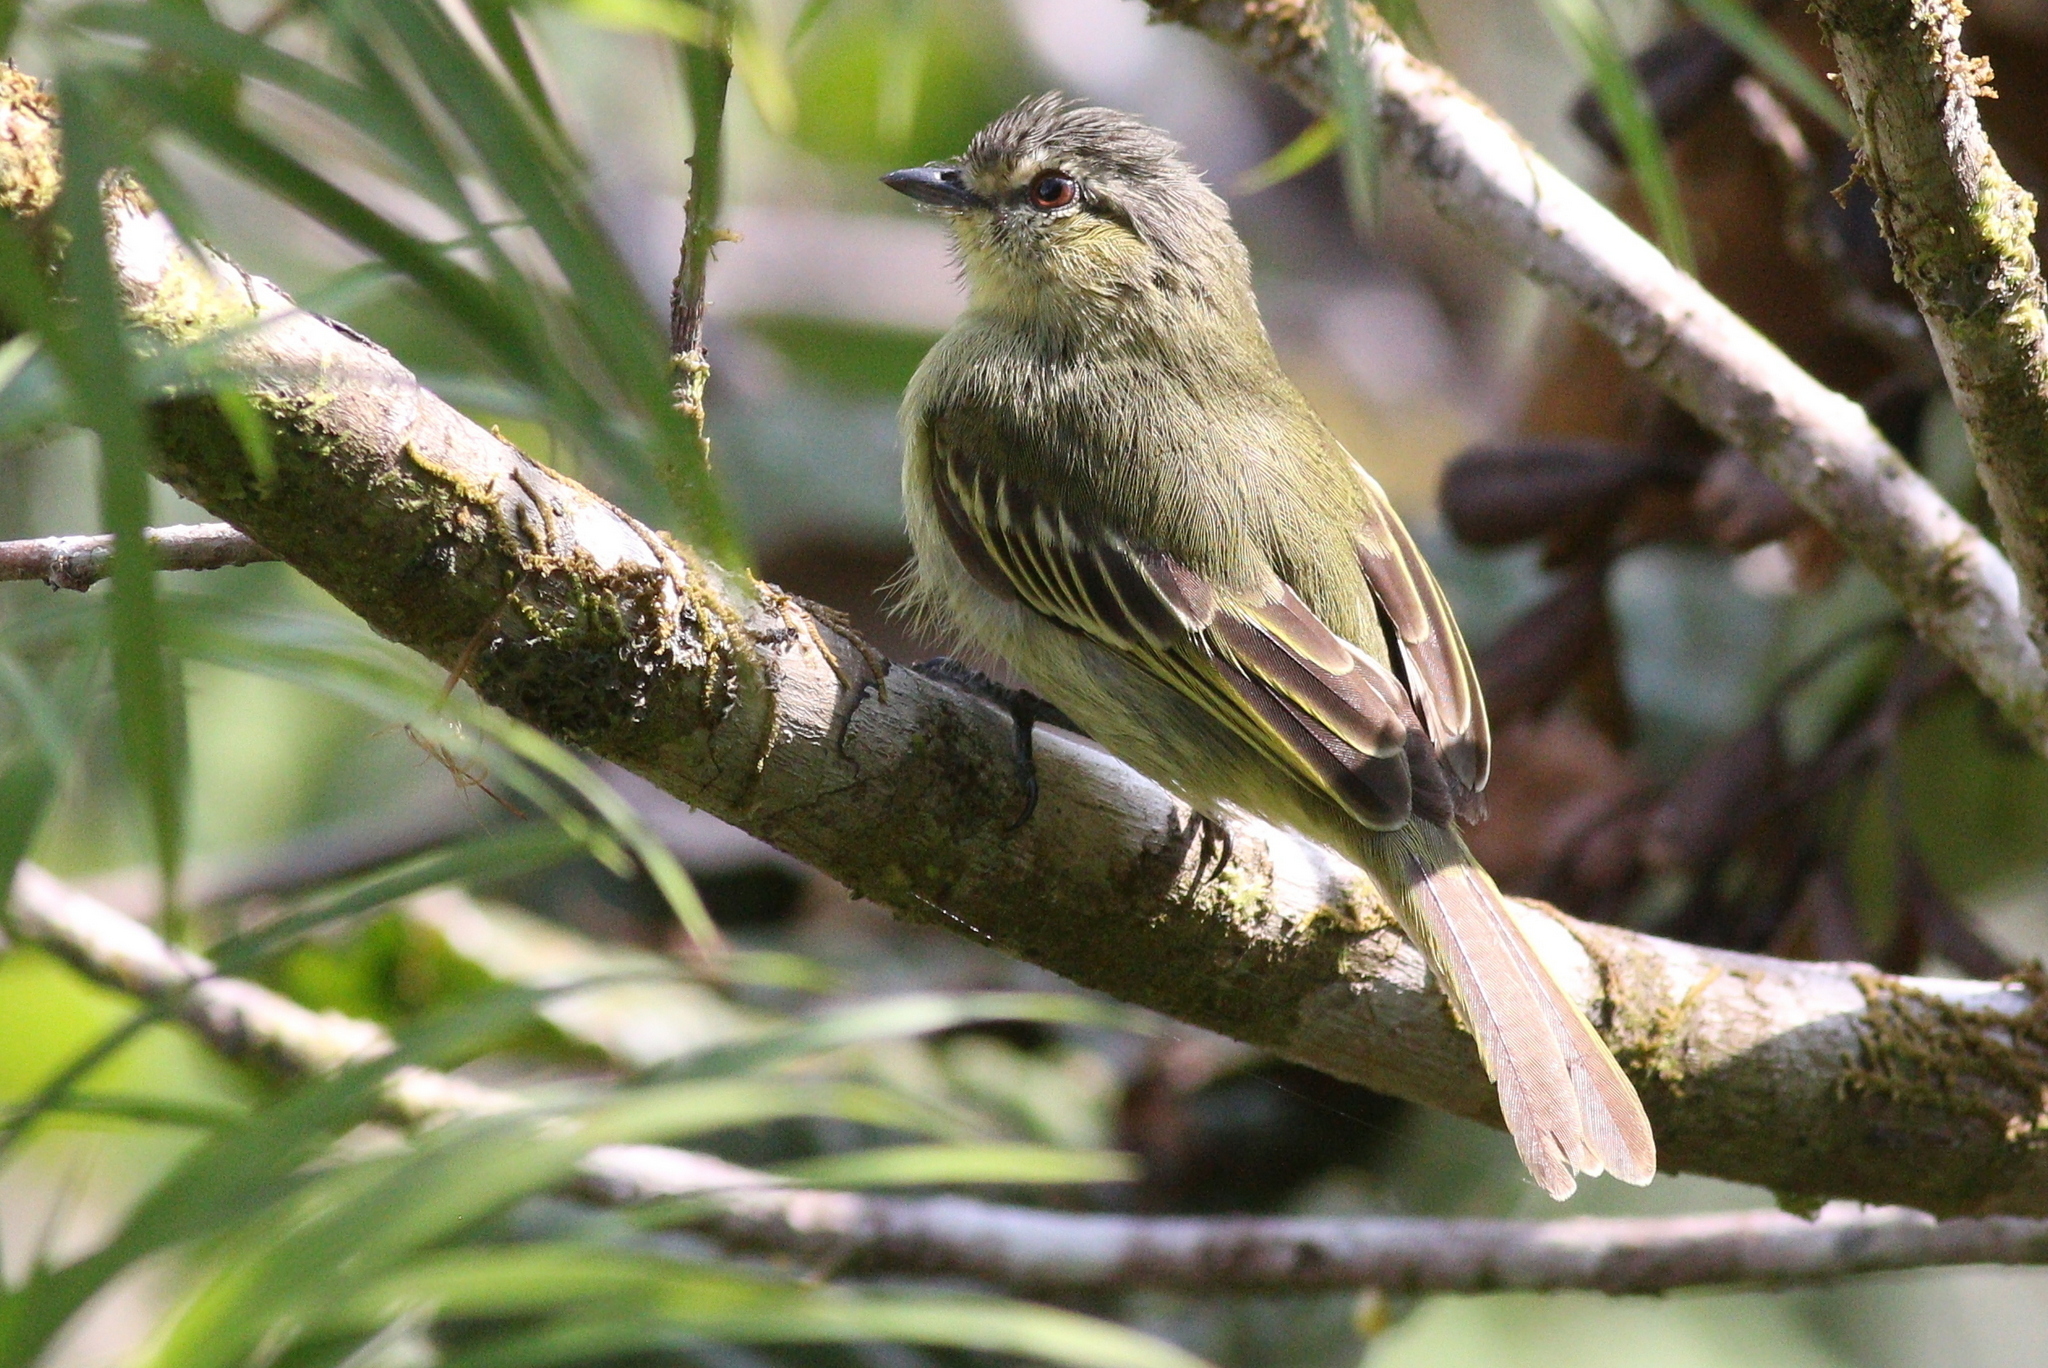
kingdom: Animalia
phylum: Chordata
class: Aves
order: Passeriformes
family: Tyrannidae
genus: Zimmerius
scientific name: Zimmerius viridiflavus
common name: Peruvian tyrannulet
